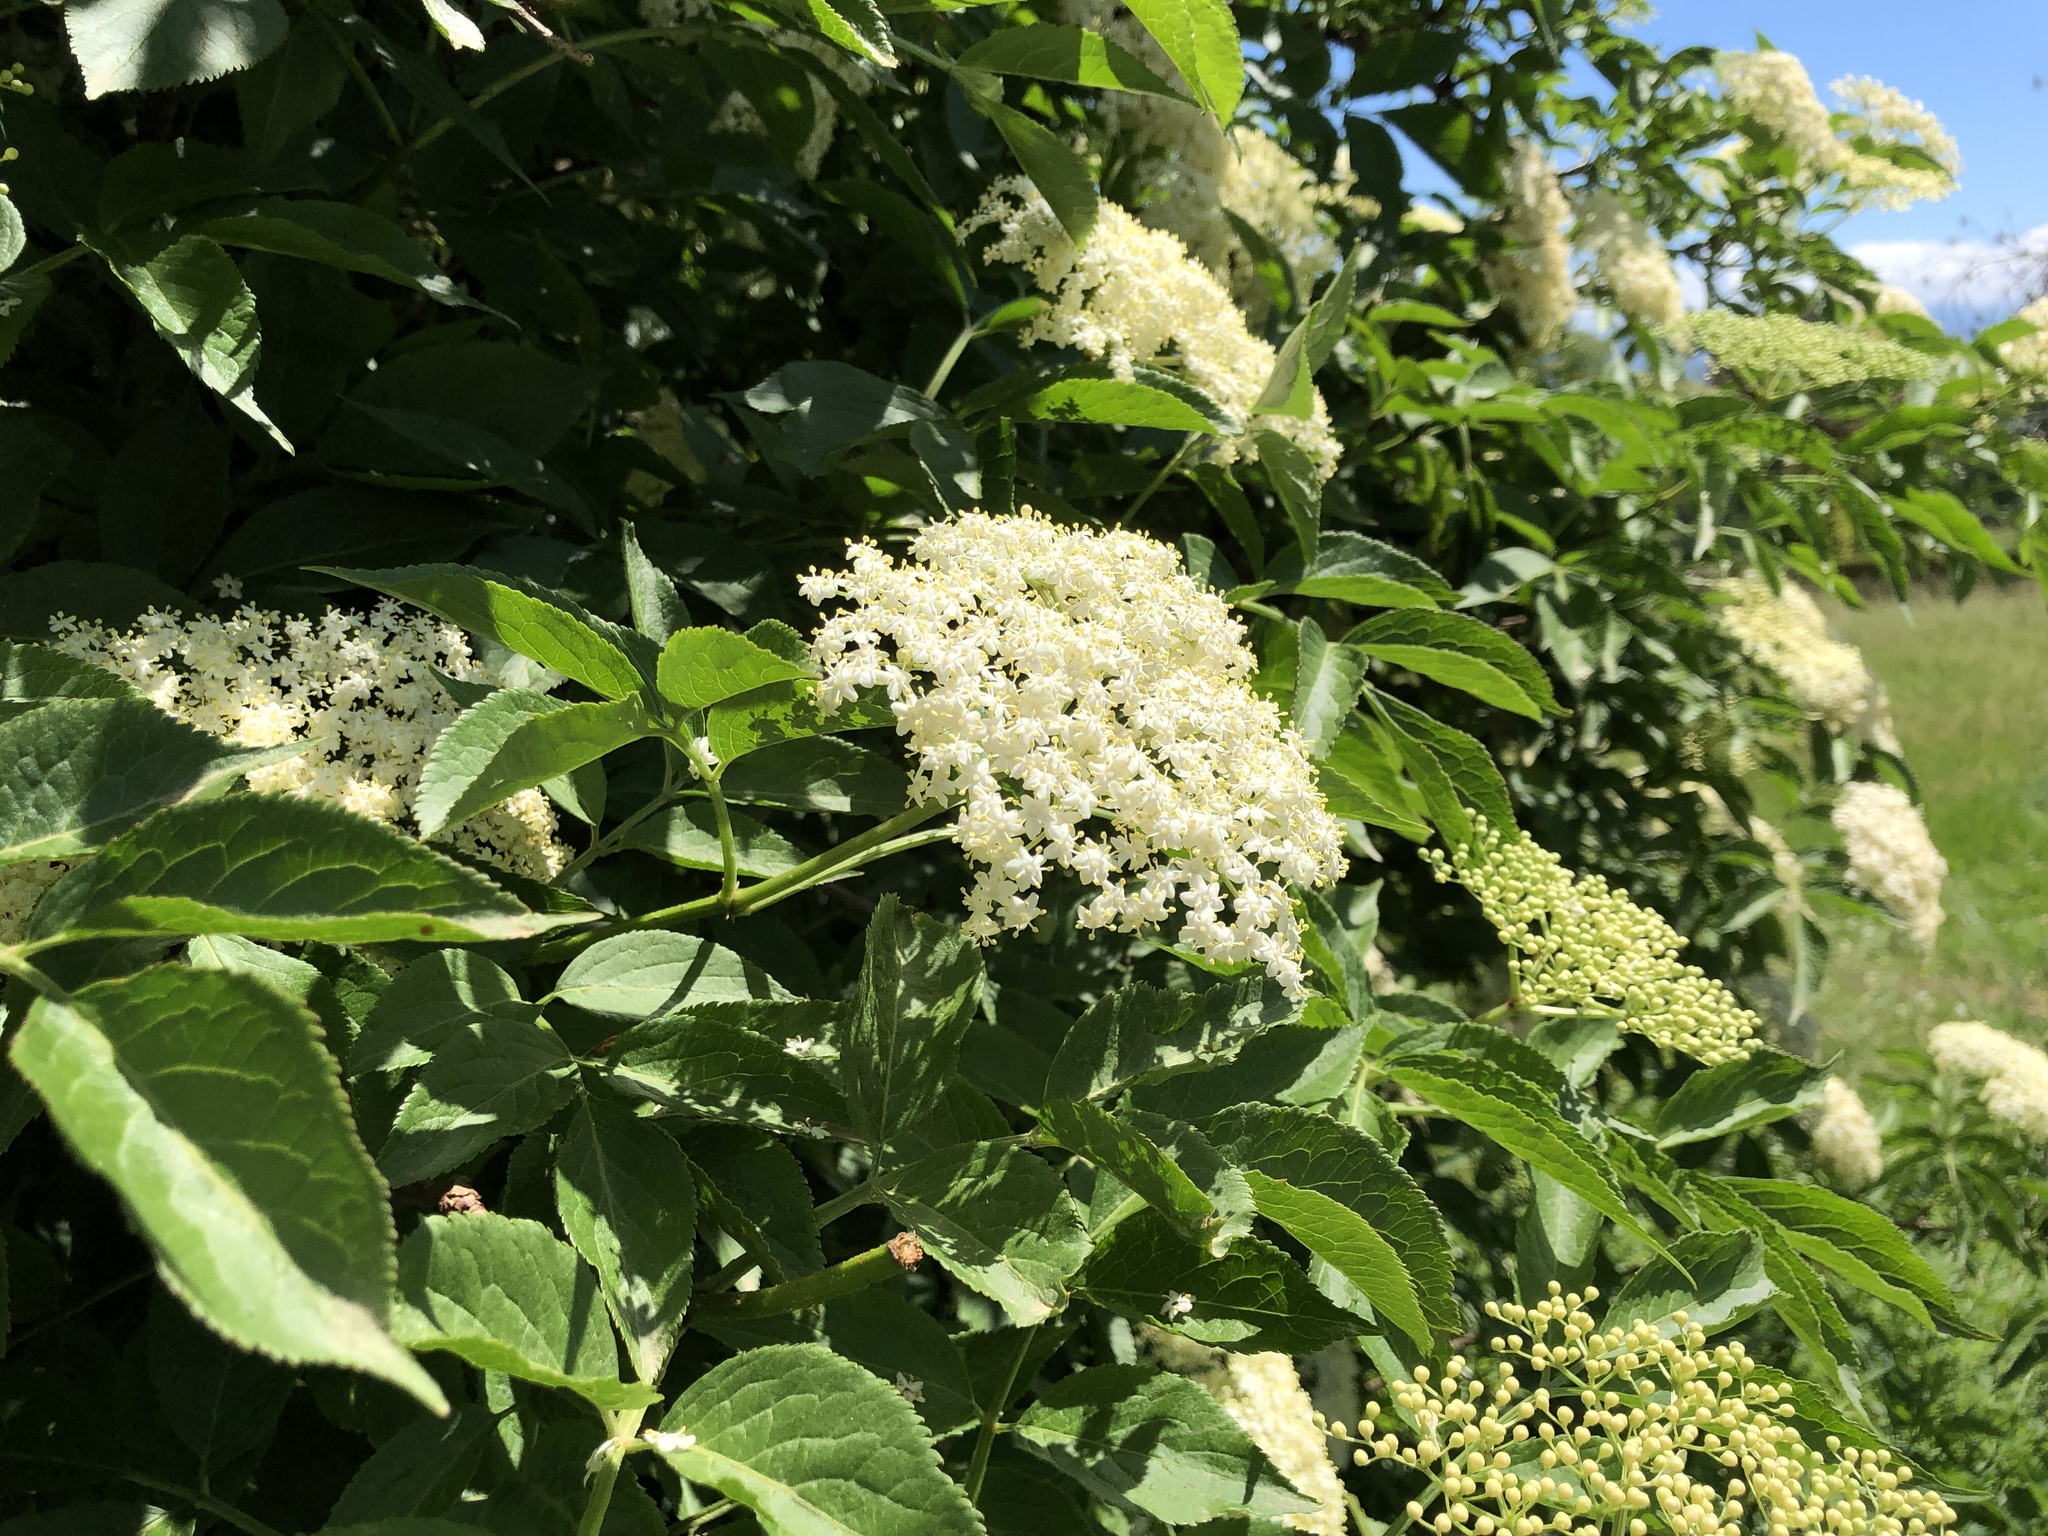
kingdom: Plantae
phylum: Tracheophyta
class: Magnoliopsida
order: Dipsacales
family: Viburnaceae
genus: Sambucus
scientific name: Sambucus nigra
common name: Elder
